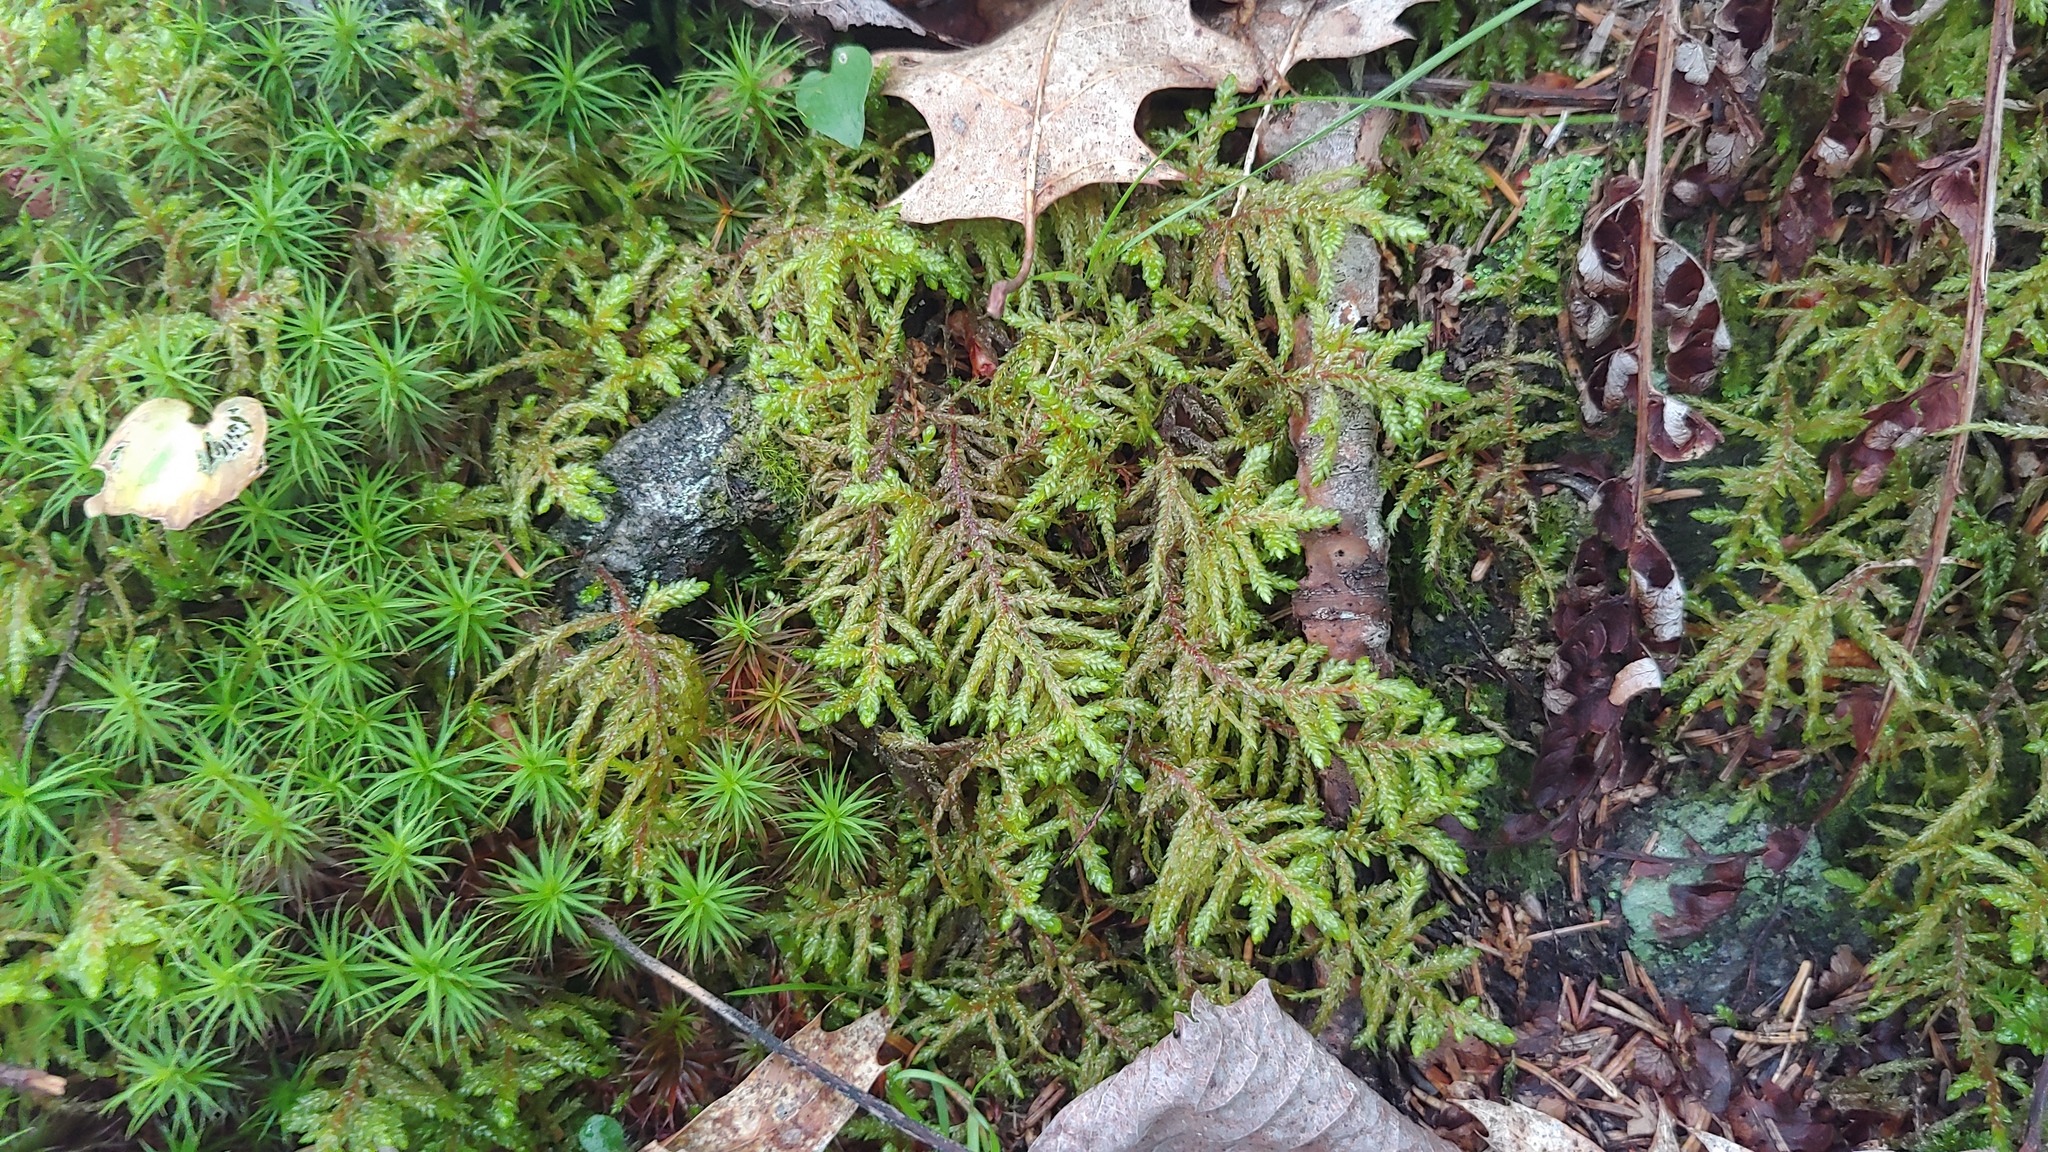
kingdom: Plantae
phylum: Bryophyta
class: Bryopsida
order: Hypnales
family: Hylocomiaceae
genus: Pleurozium
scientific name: Pleurozium schreberi
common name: Red-stemmed feather moss
